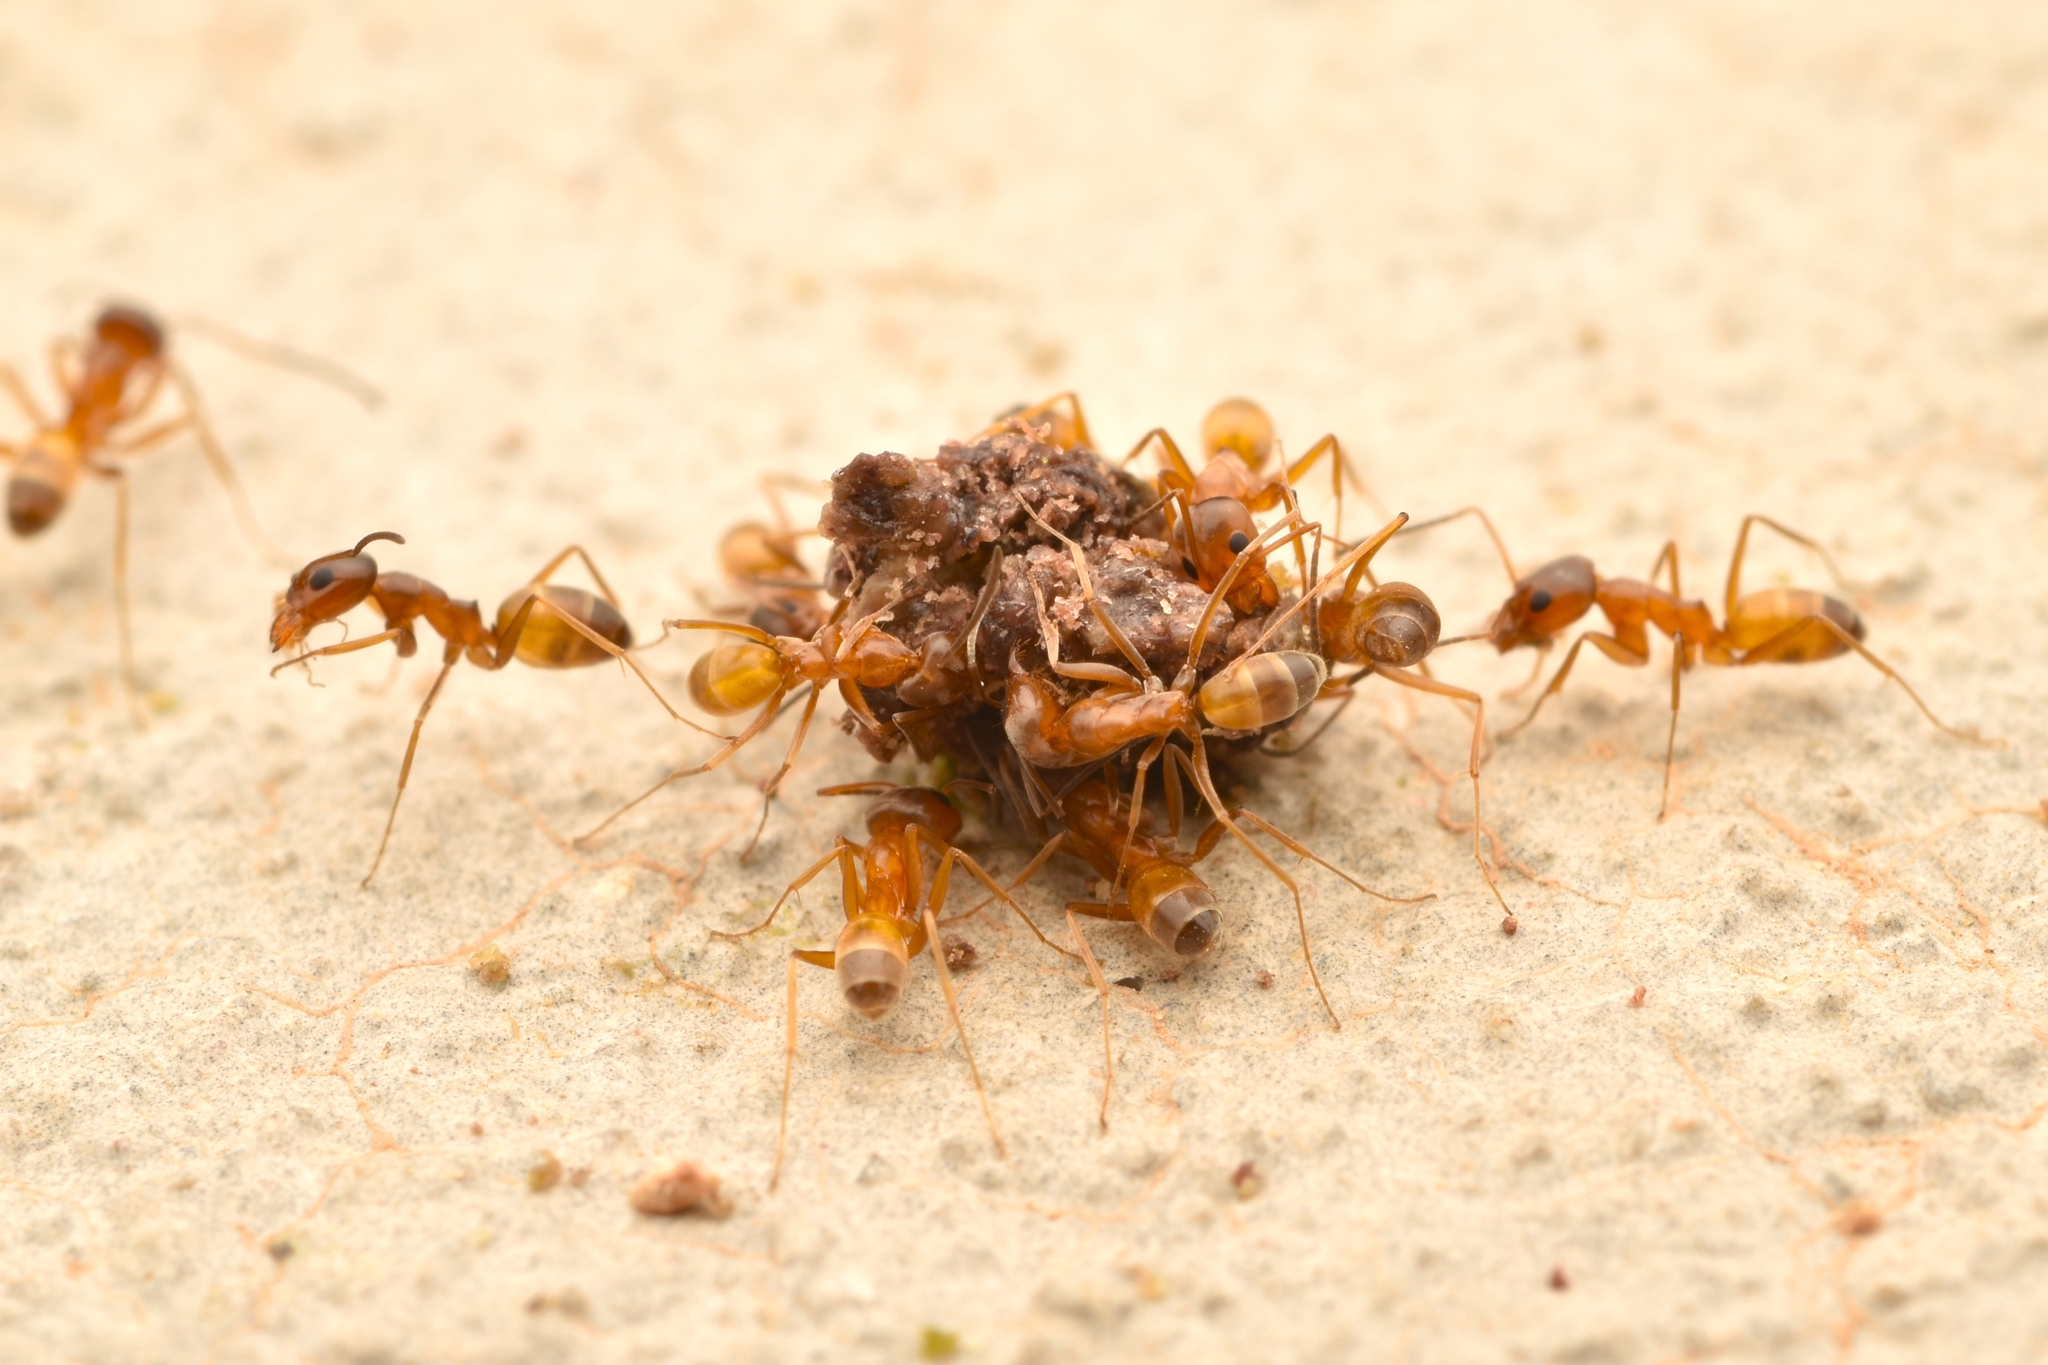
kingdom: Animalia
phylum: Arthropoda
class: Insecta
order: Hymenoptera
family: Formicidae
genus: Dorymyrmex
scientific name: Dorymyrmex flavus
